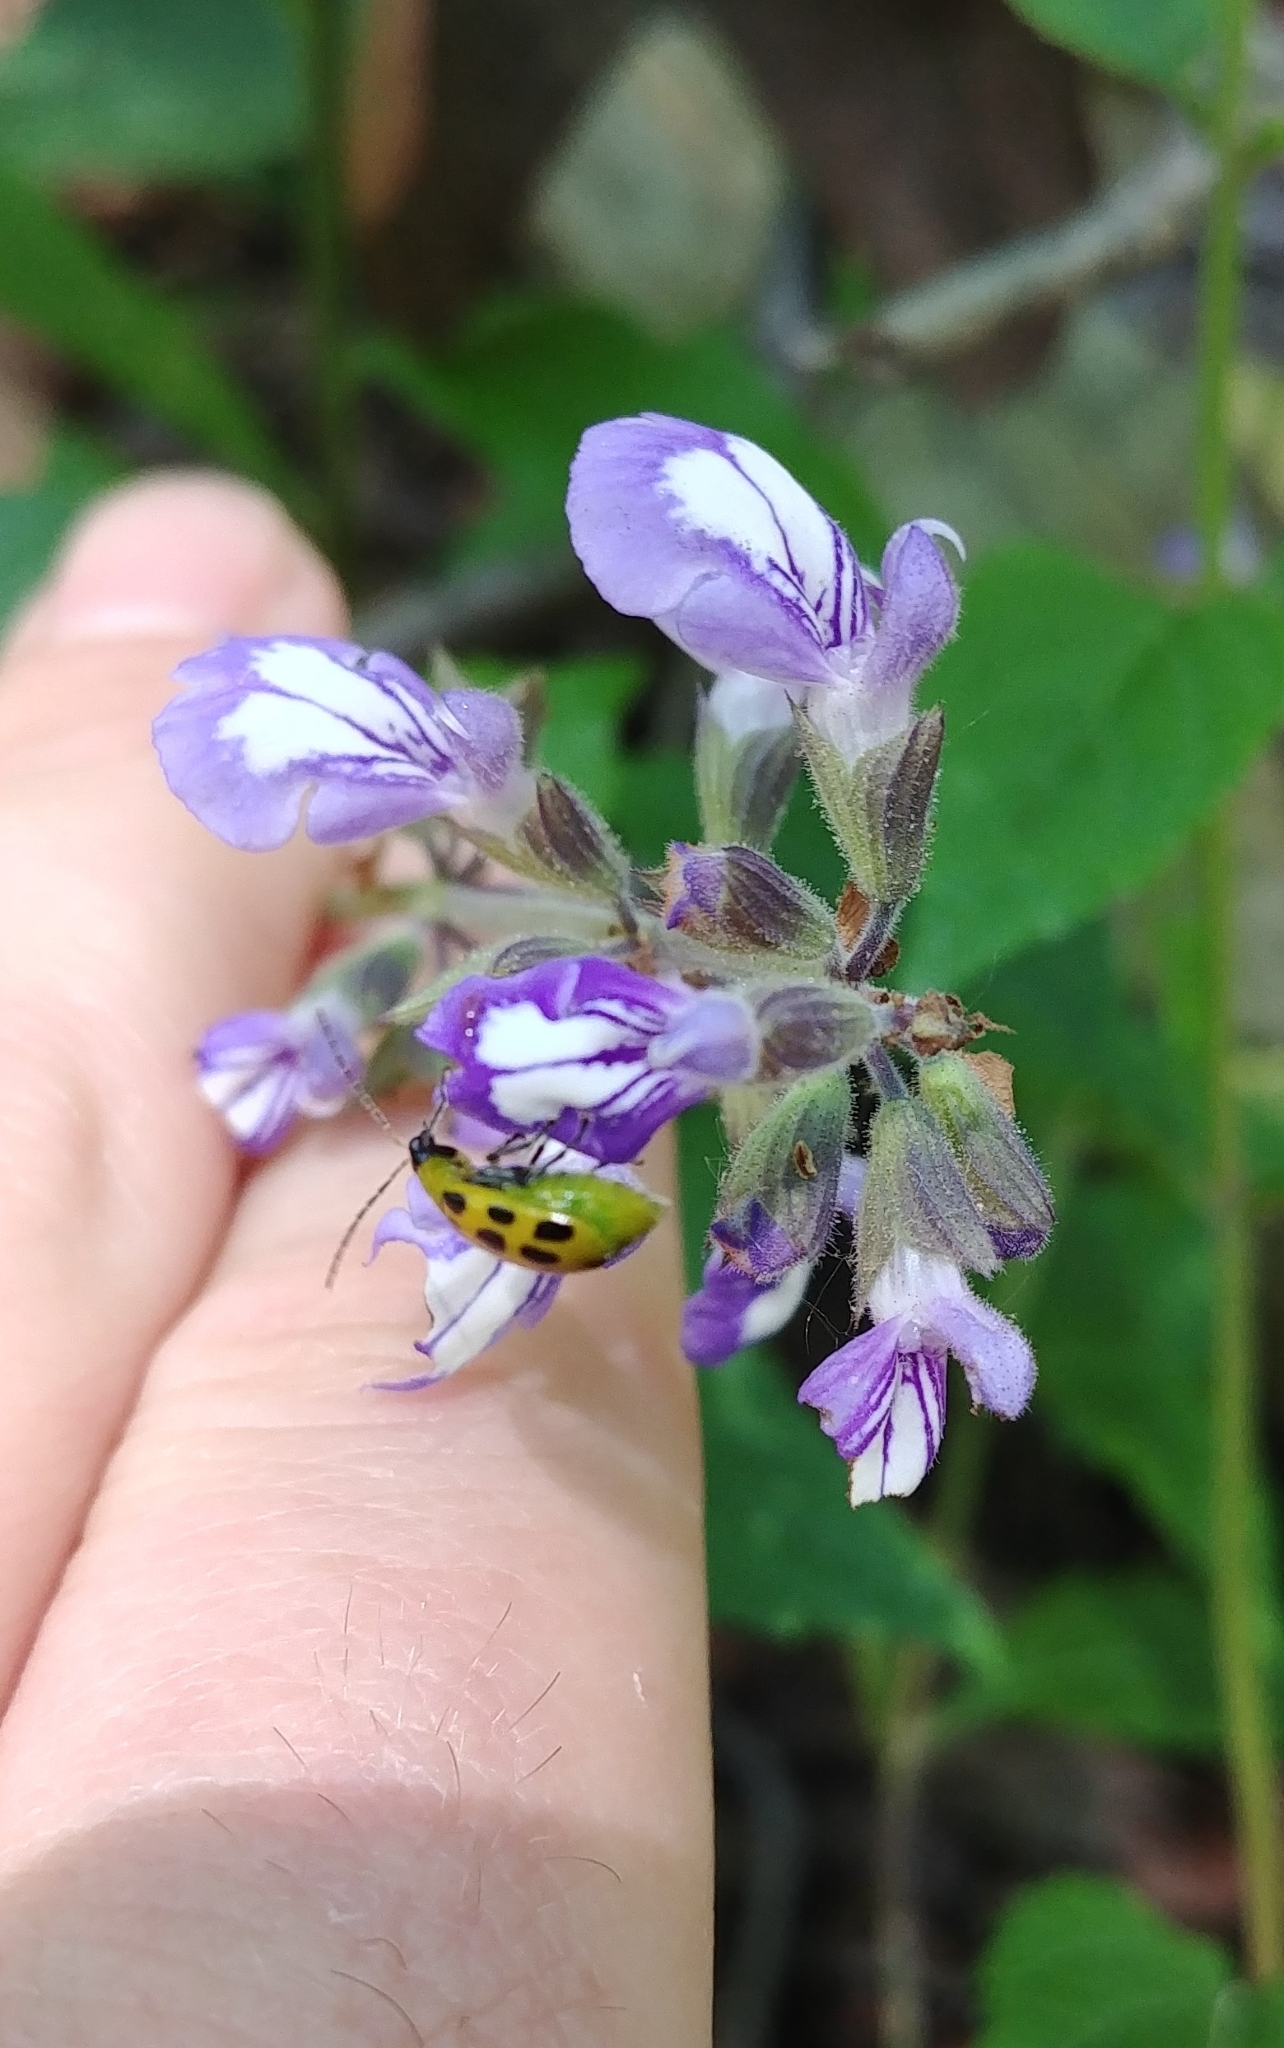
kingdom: Animalia
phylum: Arthropoda
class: Insecta
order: Coleoptera
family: Chrysomelidae
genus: Diabrotica
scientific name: Diabrotica undecimpunctata
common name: Spotted cucumber beetle
